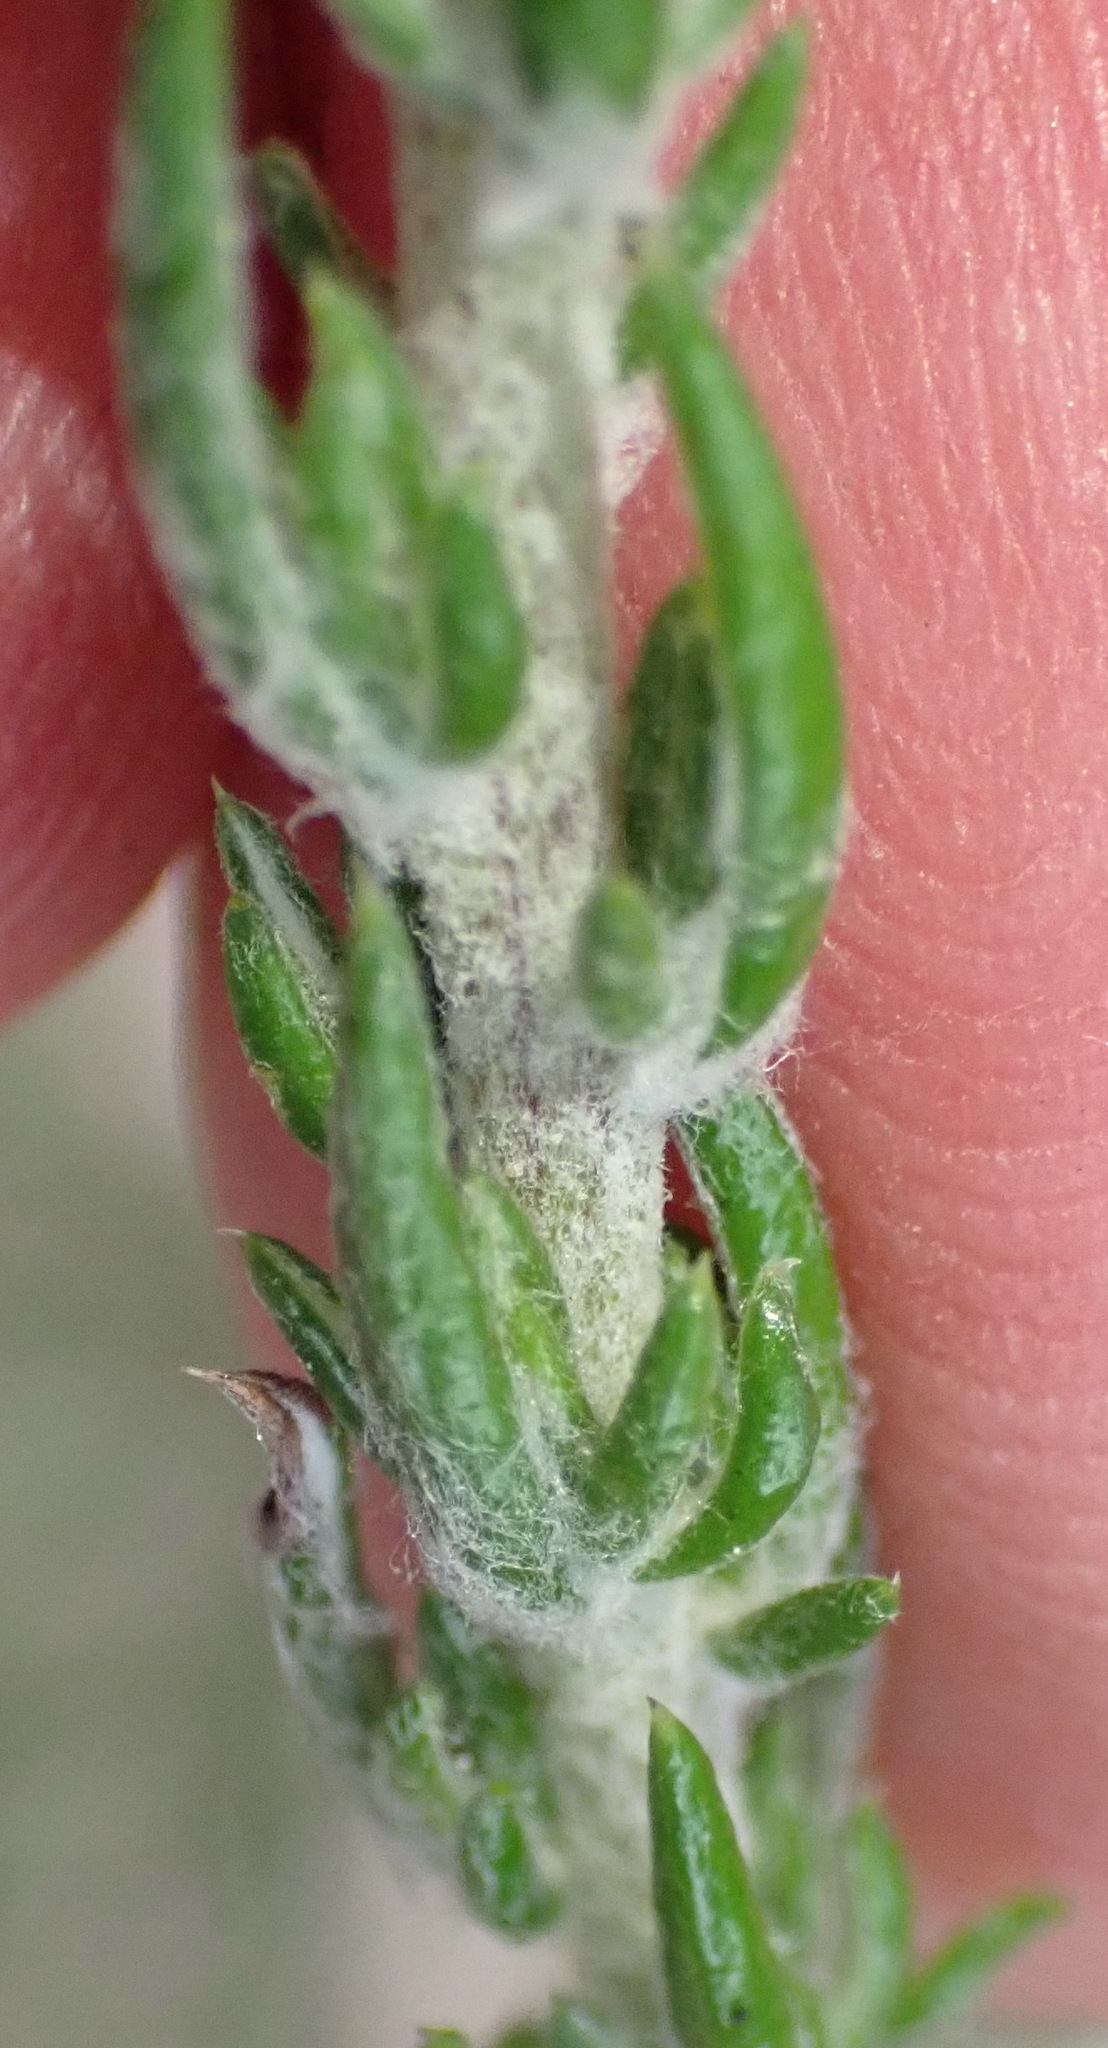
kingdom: Plantae
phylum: Tracheophyta
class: Magnoliopsida
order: Asterales
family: Asteraceae
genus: Metalasia
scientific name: Metalasia pungens
